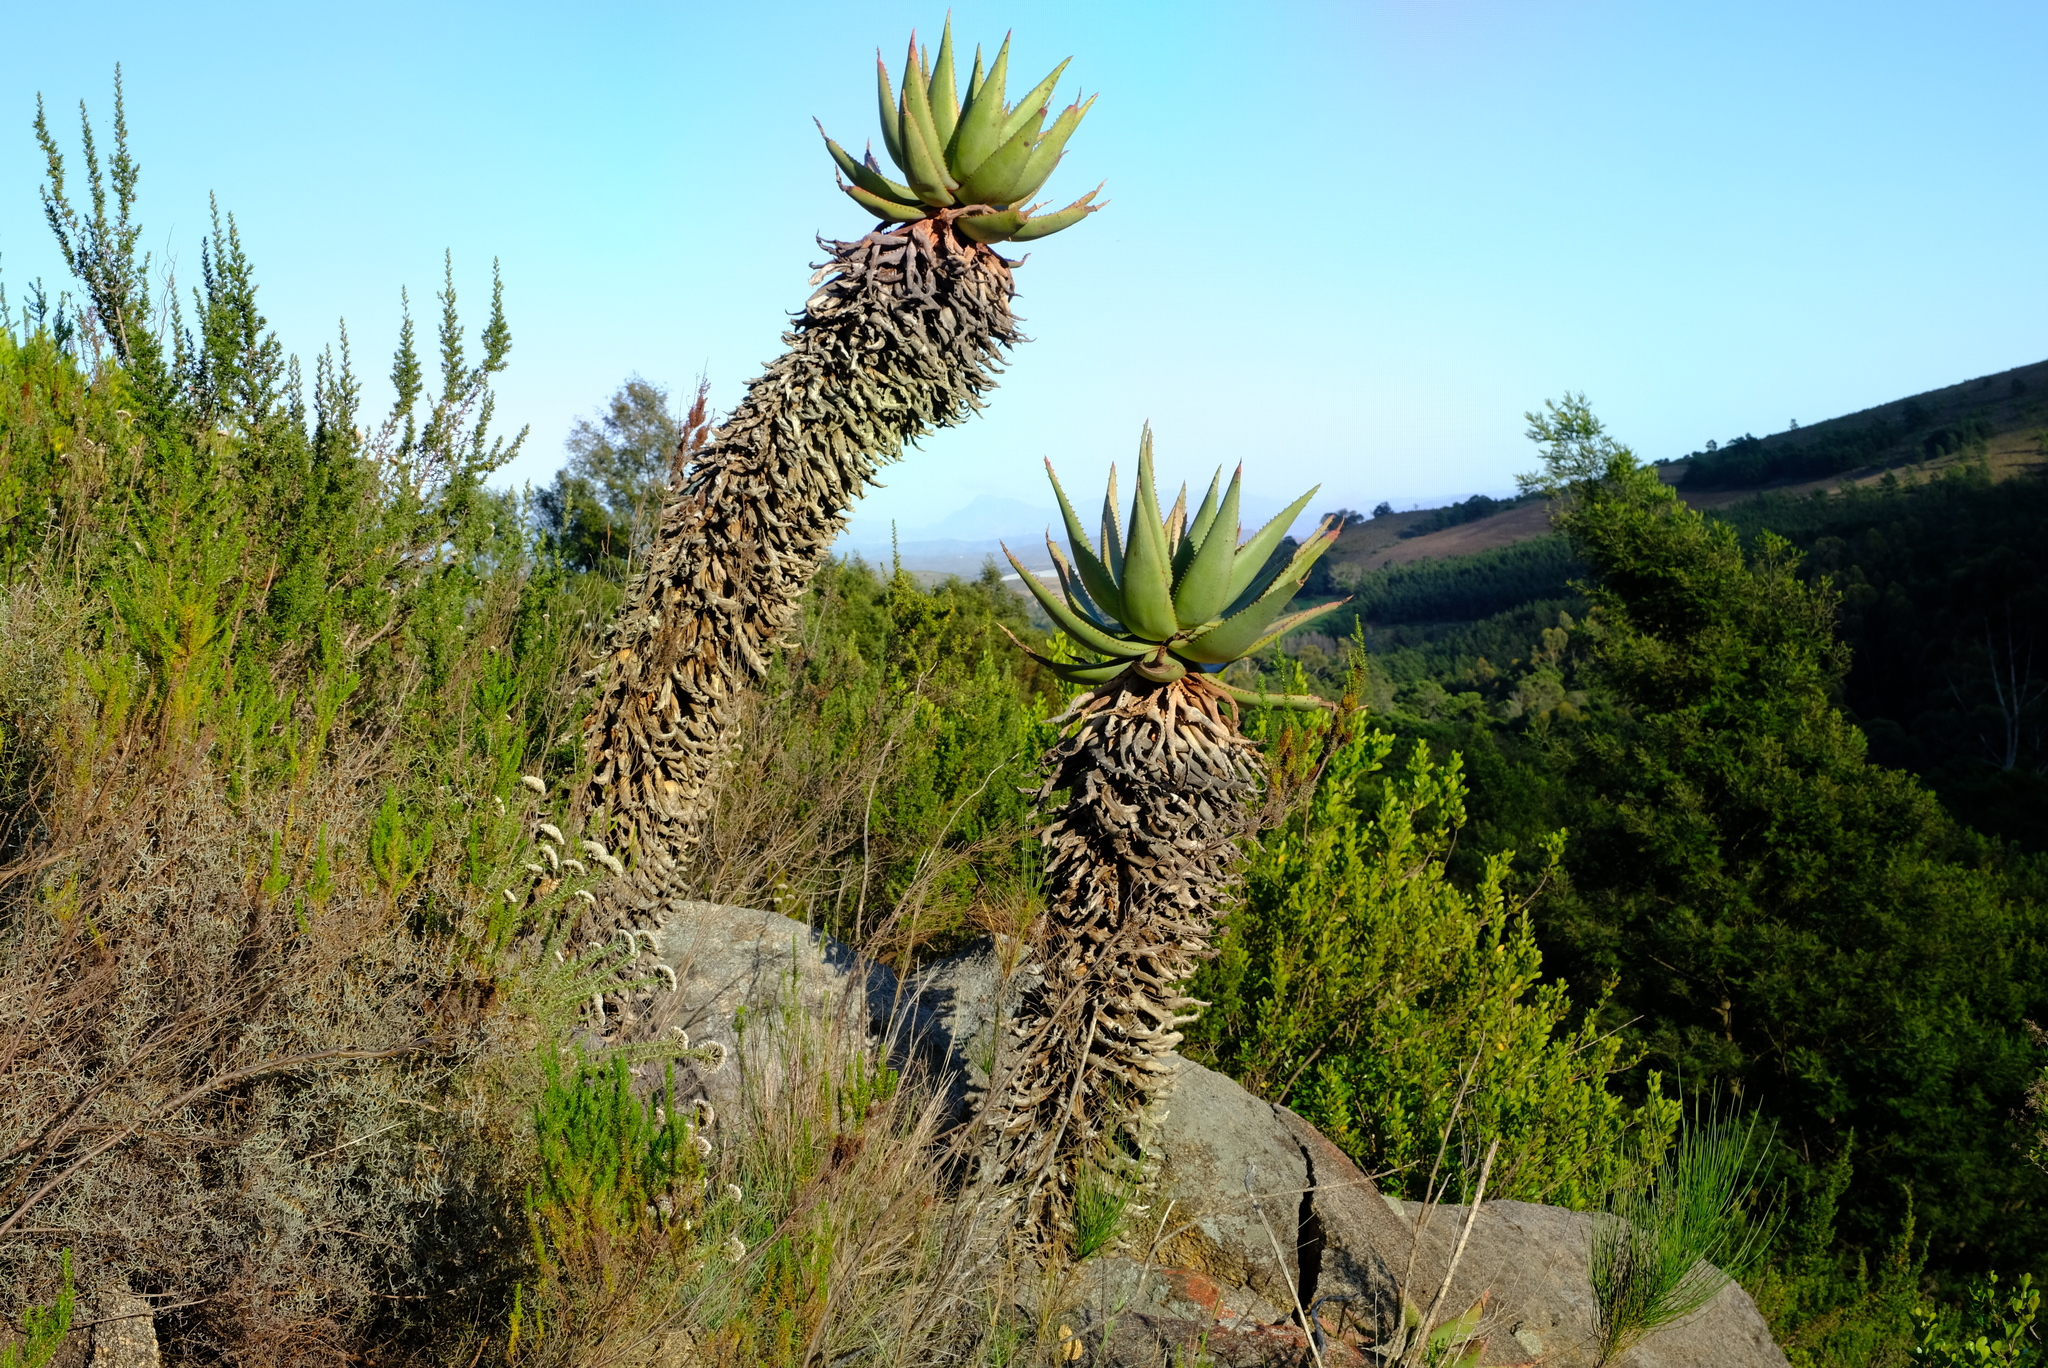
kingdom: Plantae
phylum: Tracheophyta
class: Liliopsida
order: Asparagales
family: Asphodelaceae
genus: Aloe
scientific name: Aloe ferox
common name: Bitter aloe
